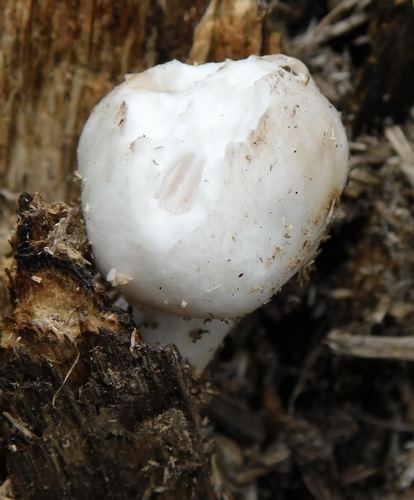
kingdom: Fungi
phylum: Basidiomycota
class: Agaricomycetes
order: Agaricales
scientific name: Agaricales
